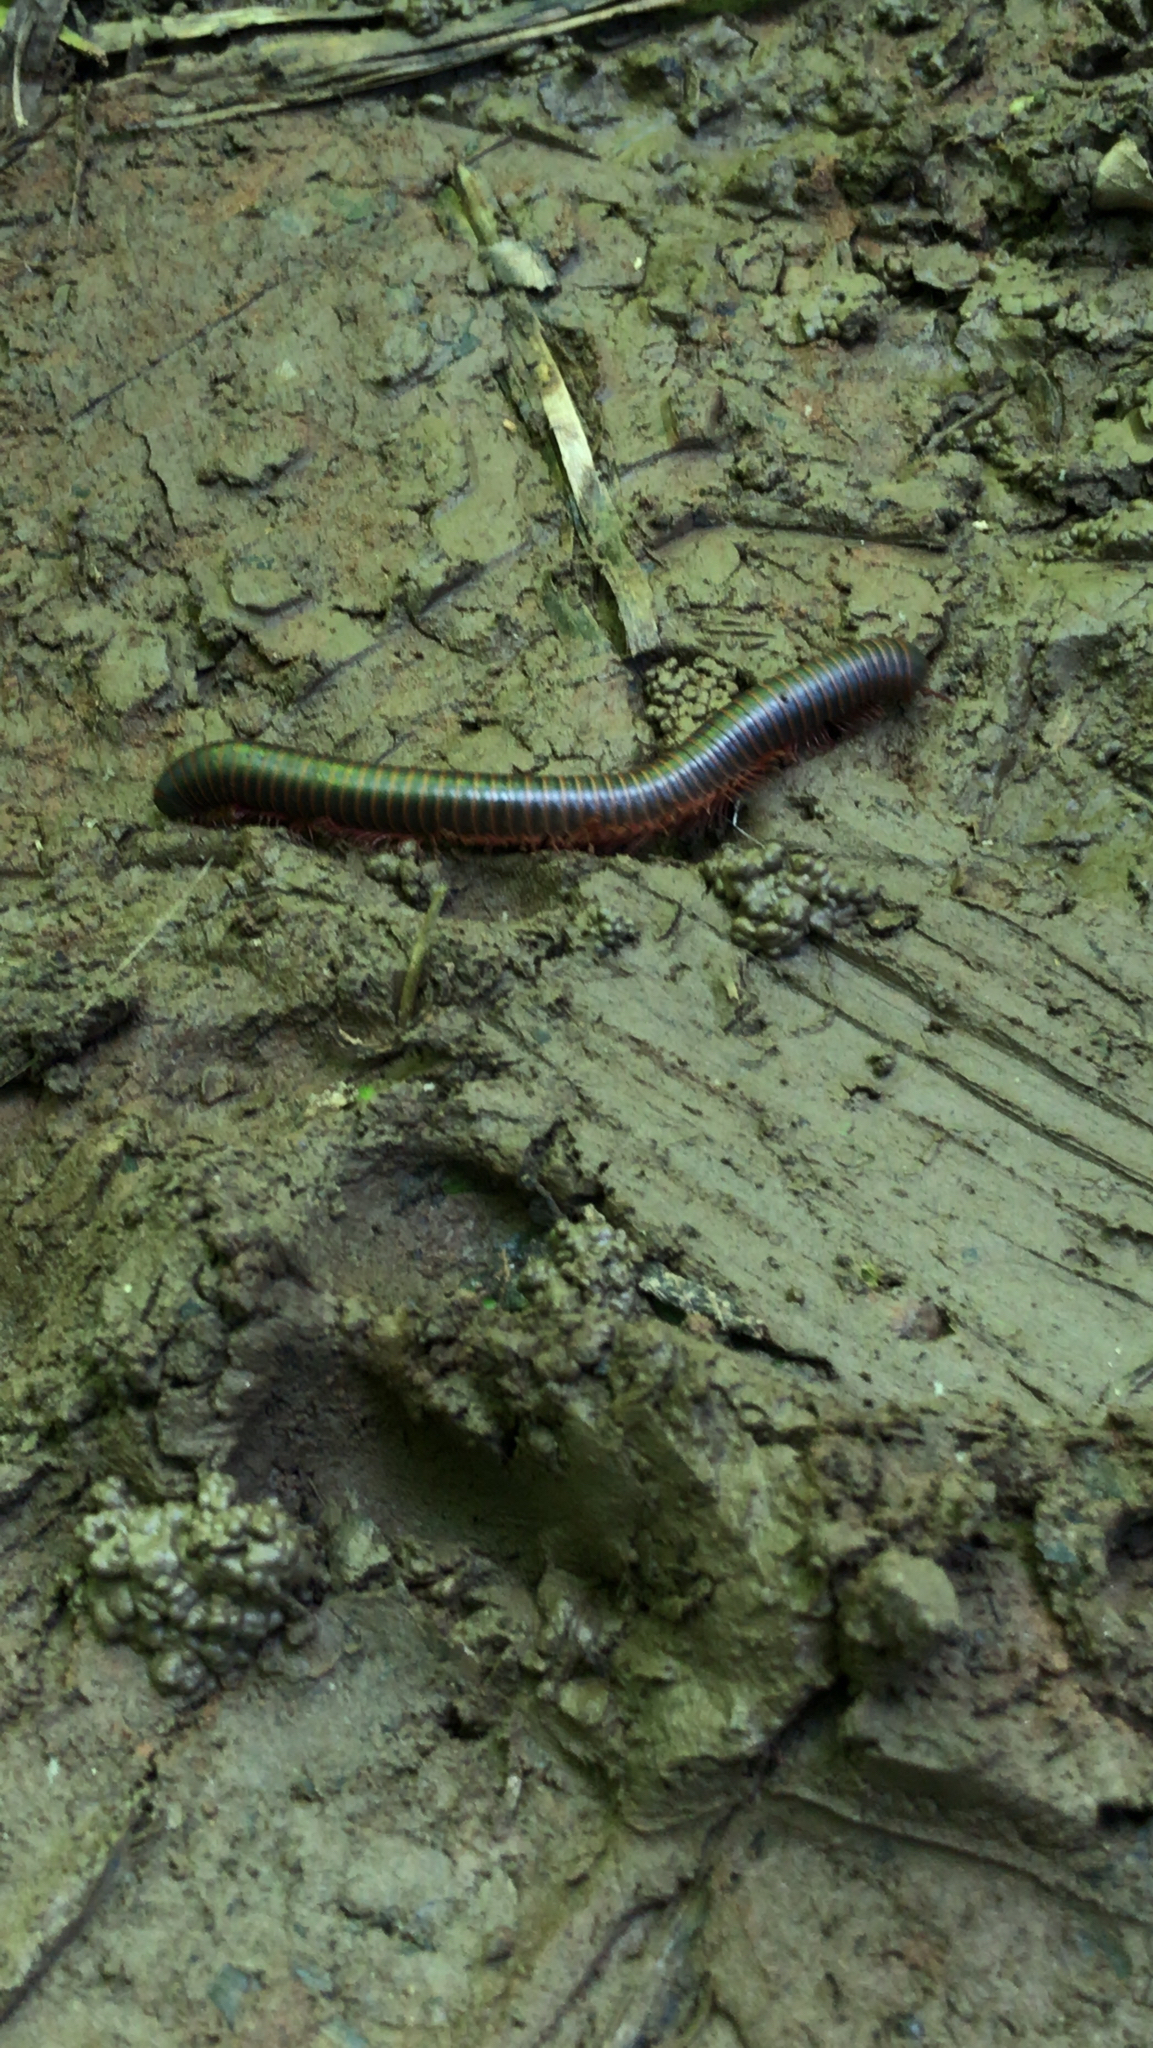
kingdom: Animalia
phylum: Arthropoda
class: Diplopoda
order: Spirobolida
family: Spirobolidae
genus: Narceus
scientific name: Narceus
